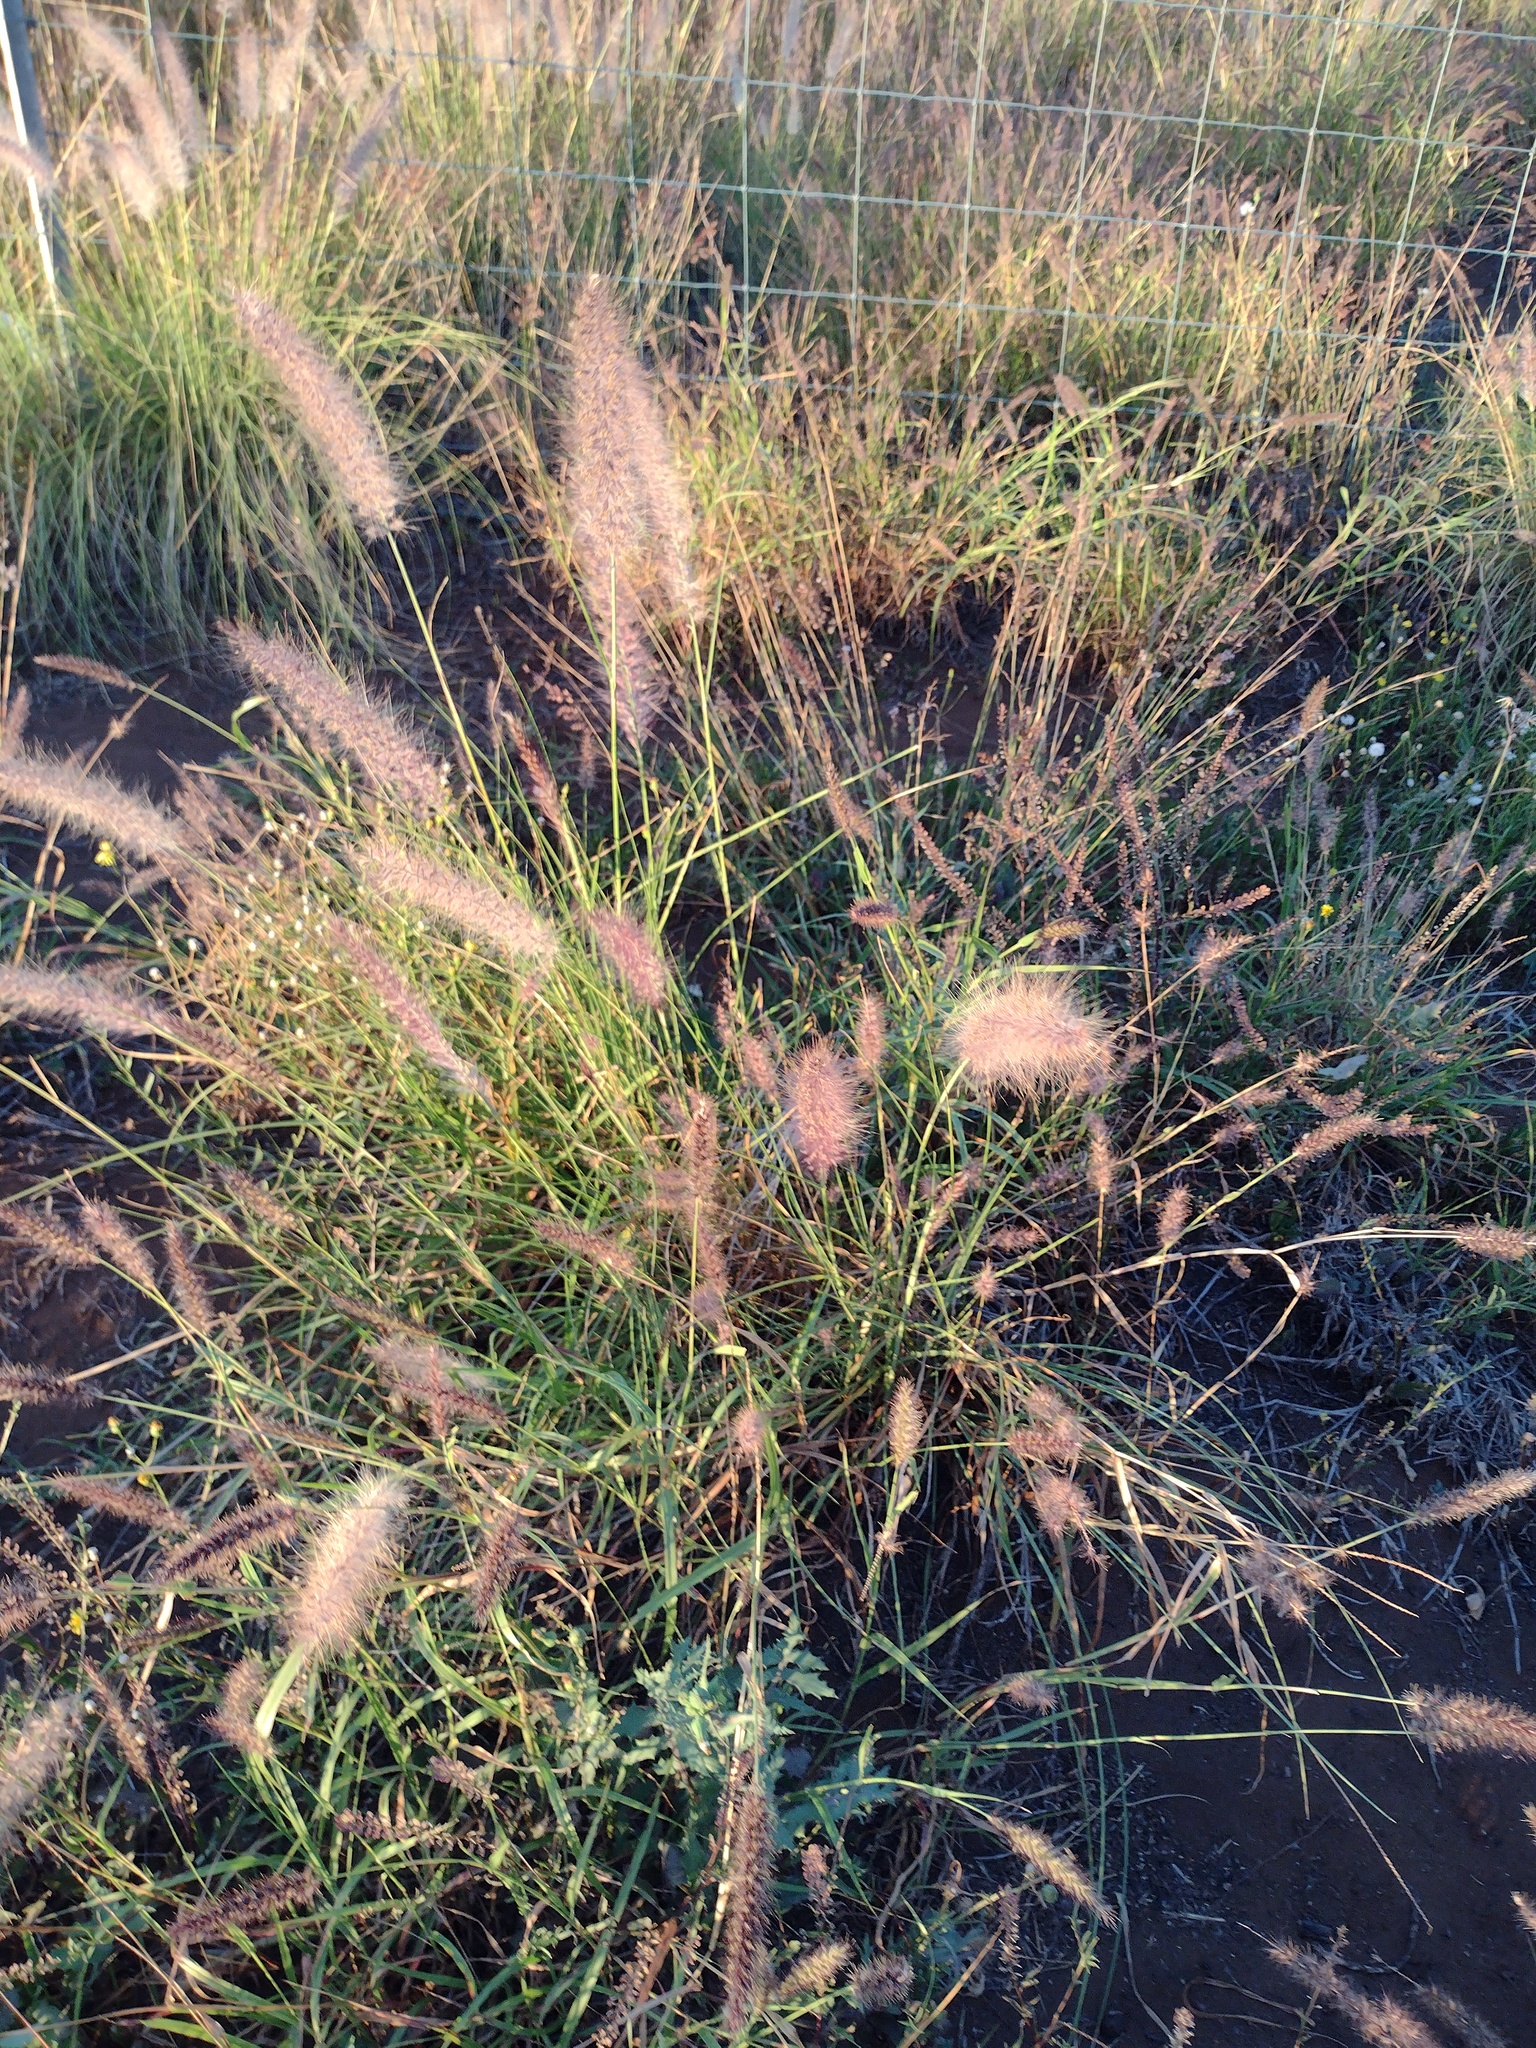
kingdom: Plantae
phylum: Tracheophyta
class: Liliopsida
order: Poales
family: Poaceae
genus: Cenchrus
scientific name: Cenchrus setaceus
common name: Crimson fountaingrass
